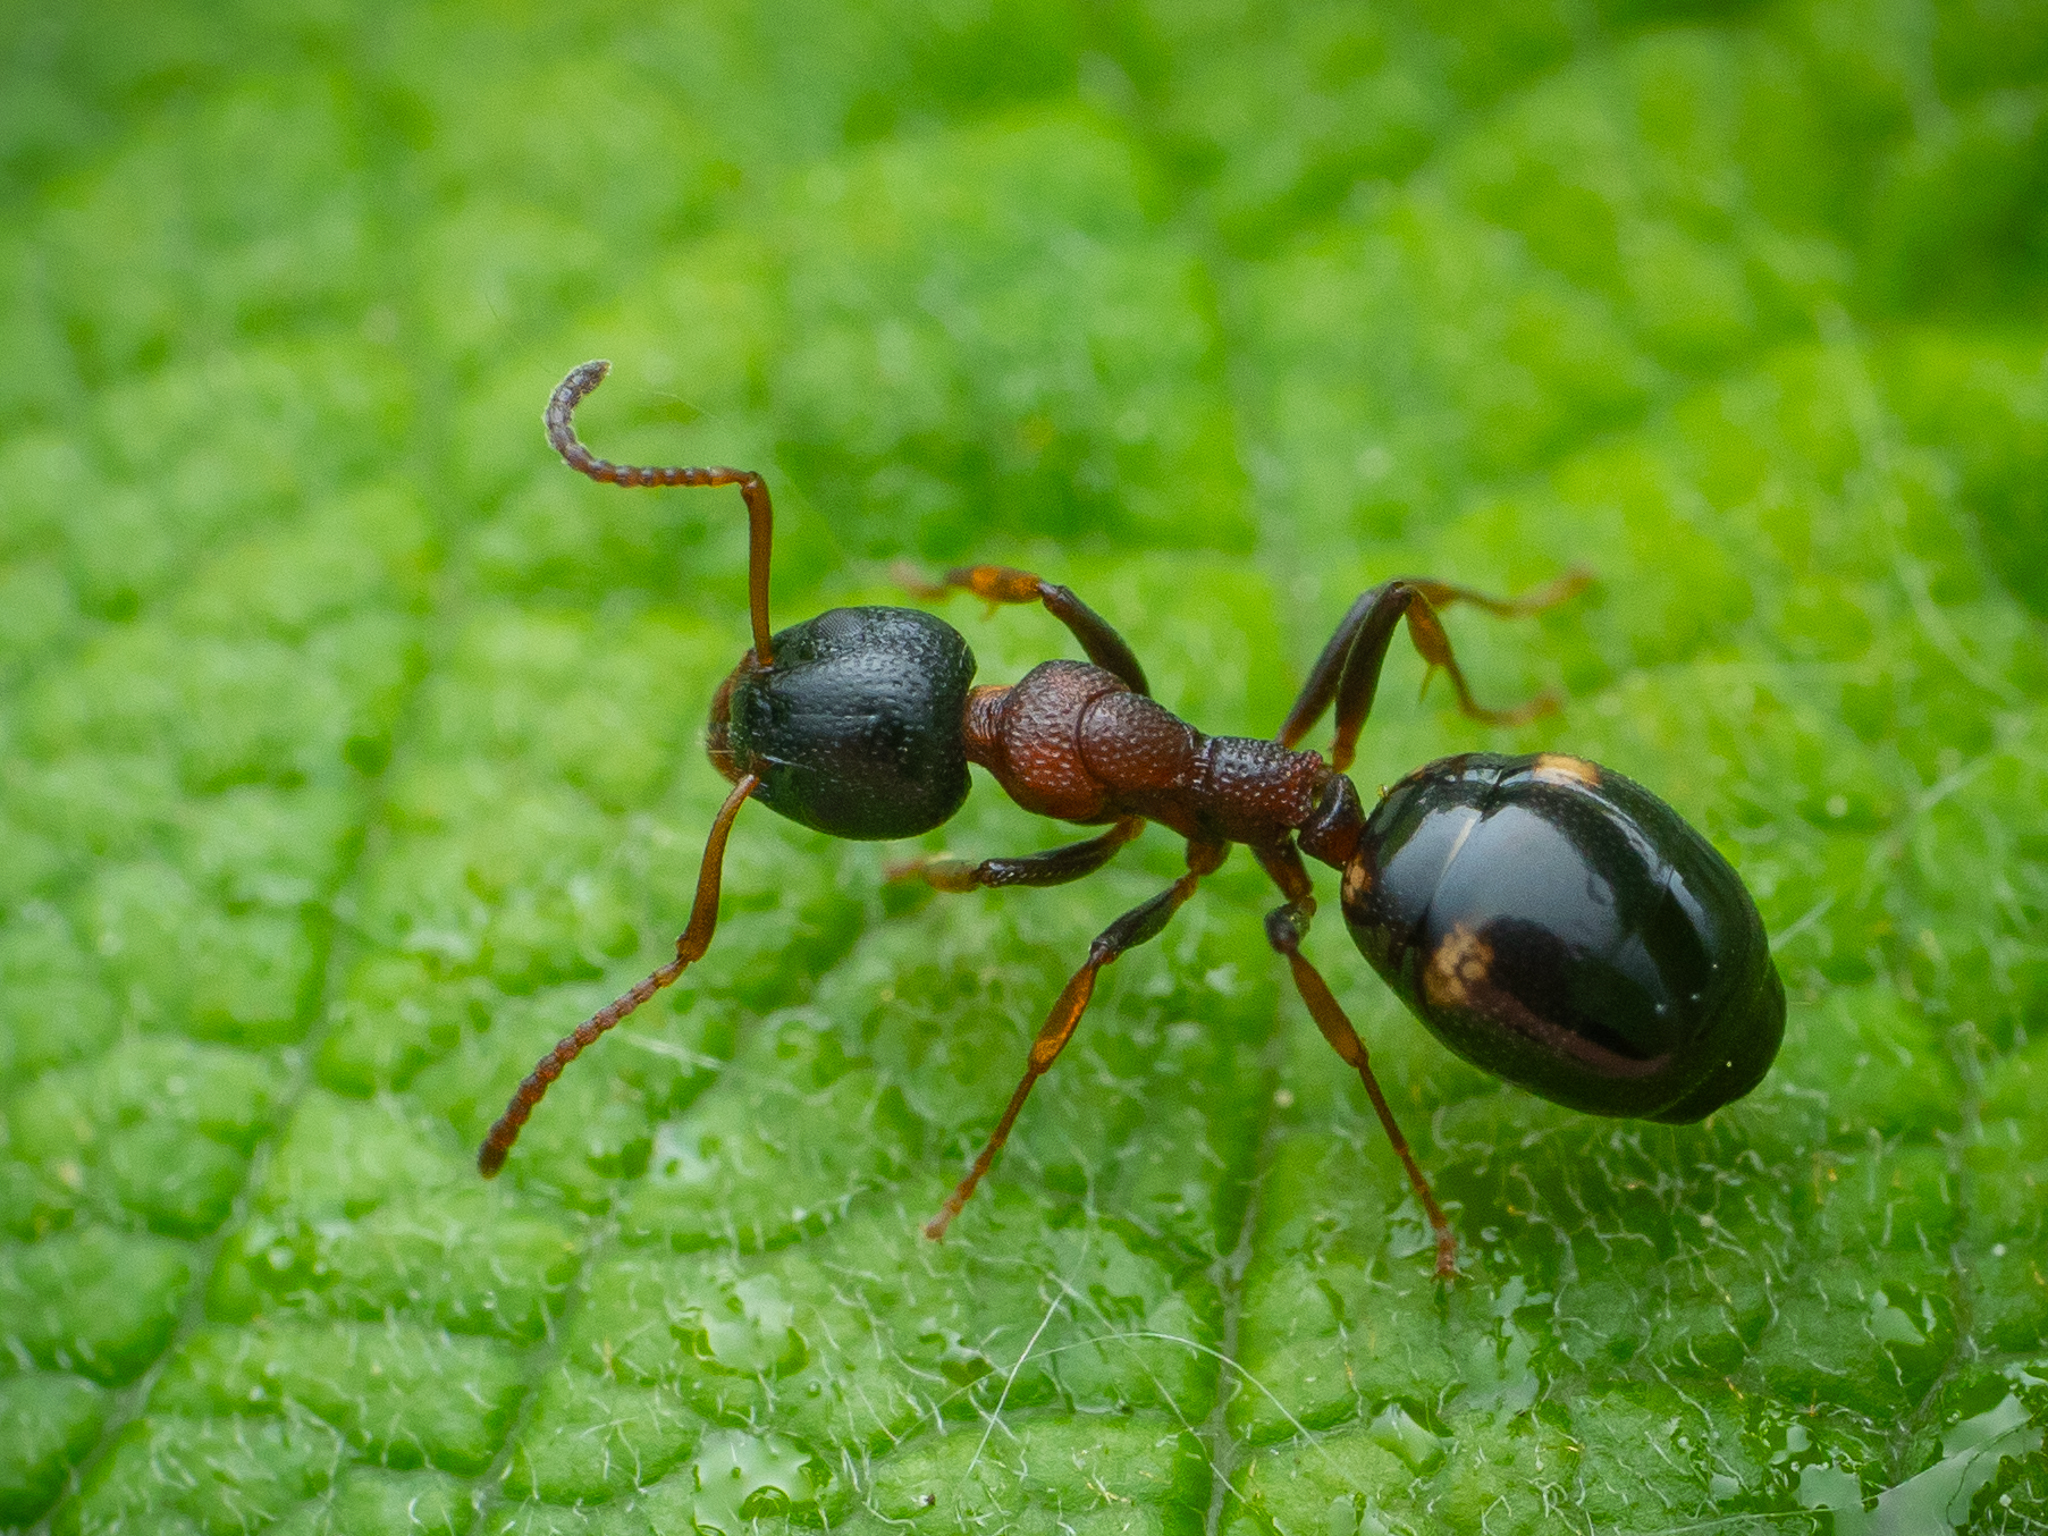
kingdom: Animalia
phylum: Arthropoda
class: Insecta
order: Hymenoptera
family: Formicidae
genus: Dolichoderus
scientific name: Dolichoderus quadripunctatus
